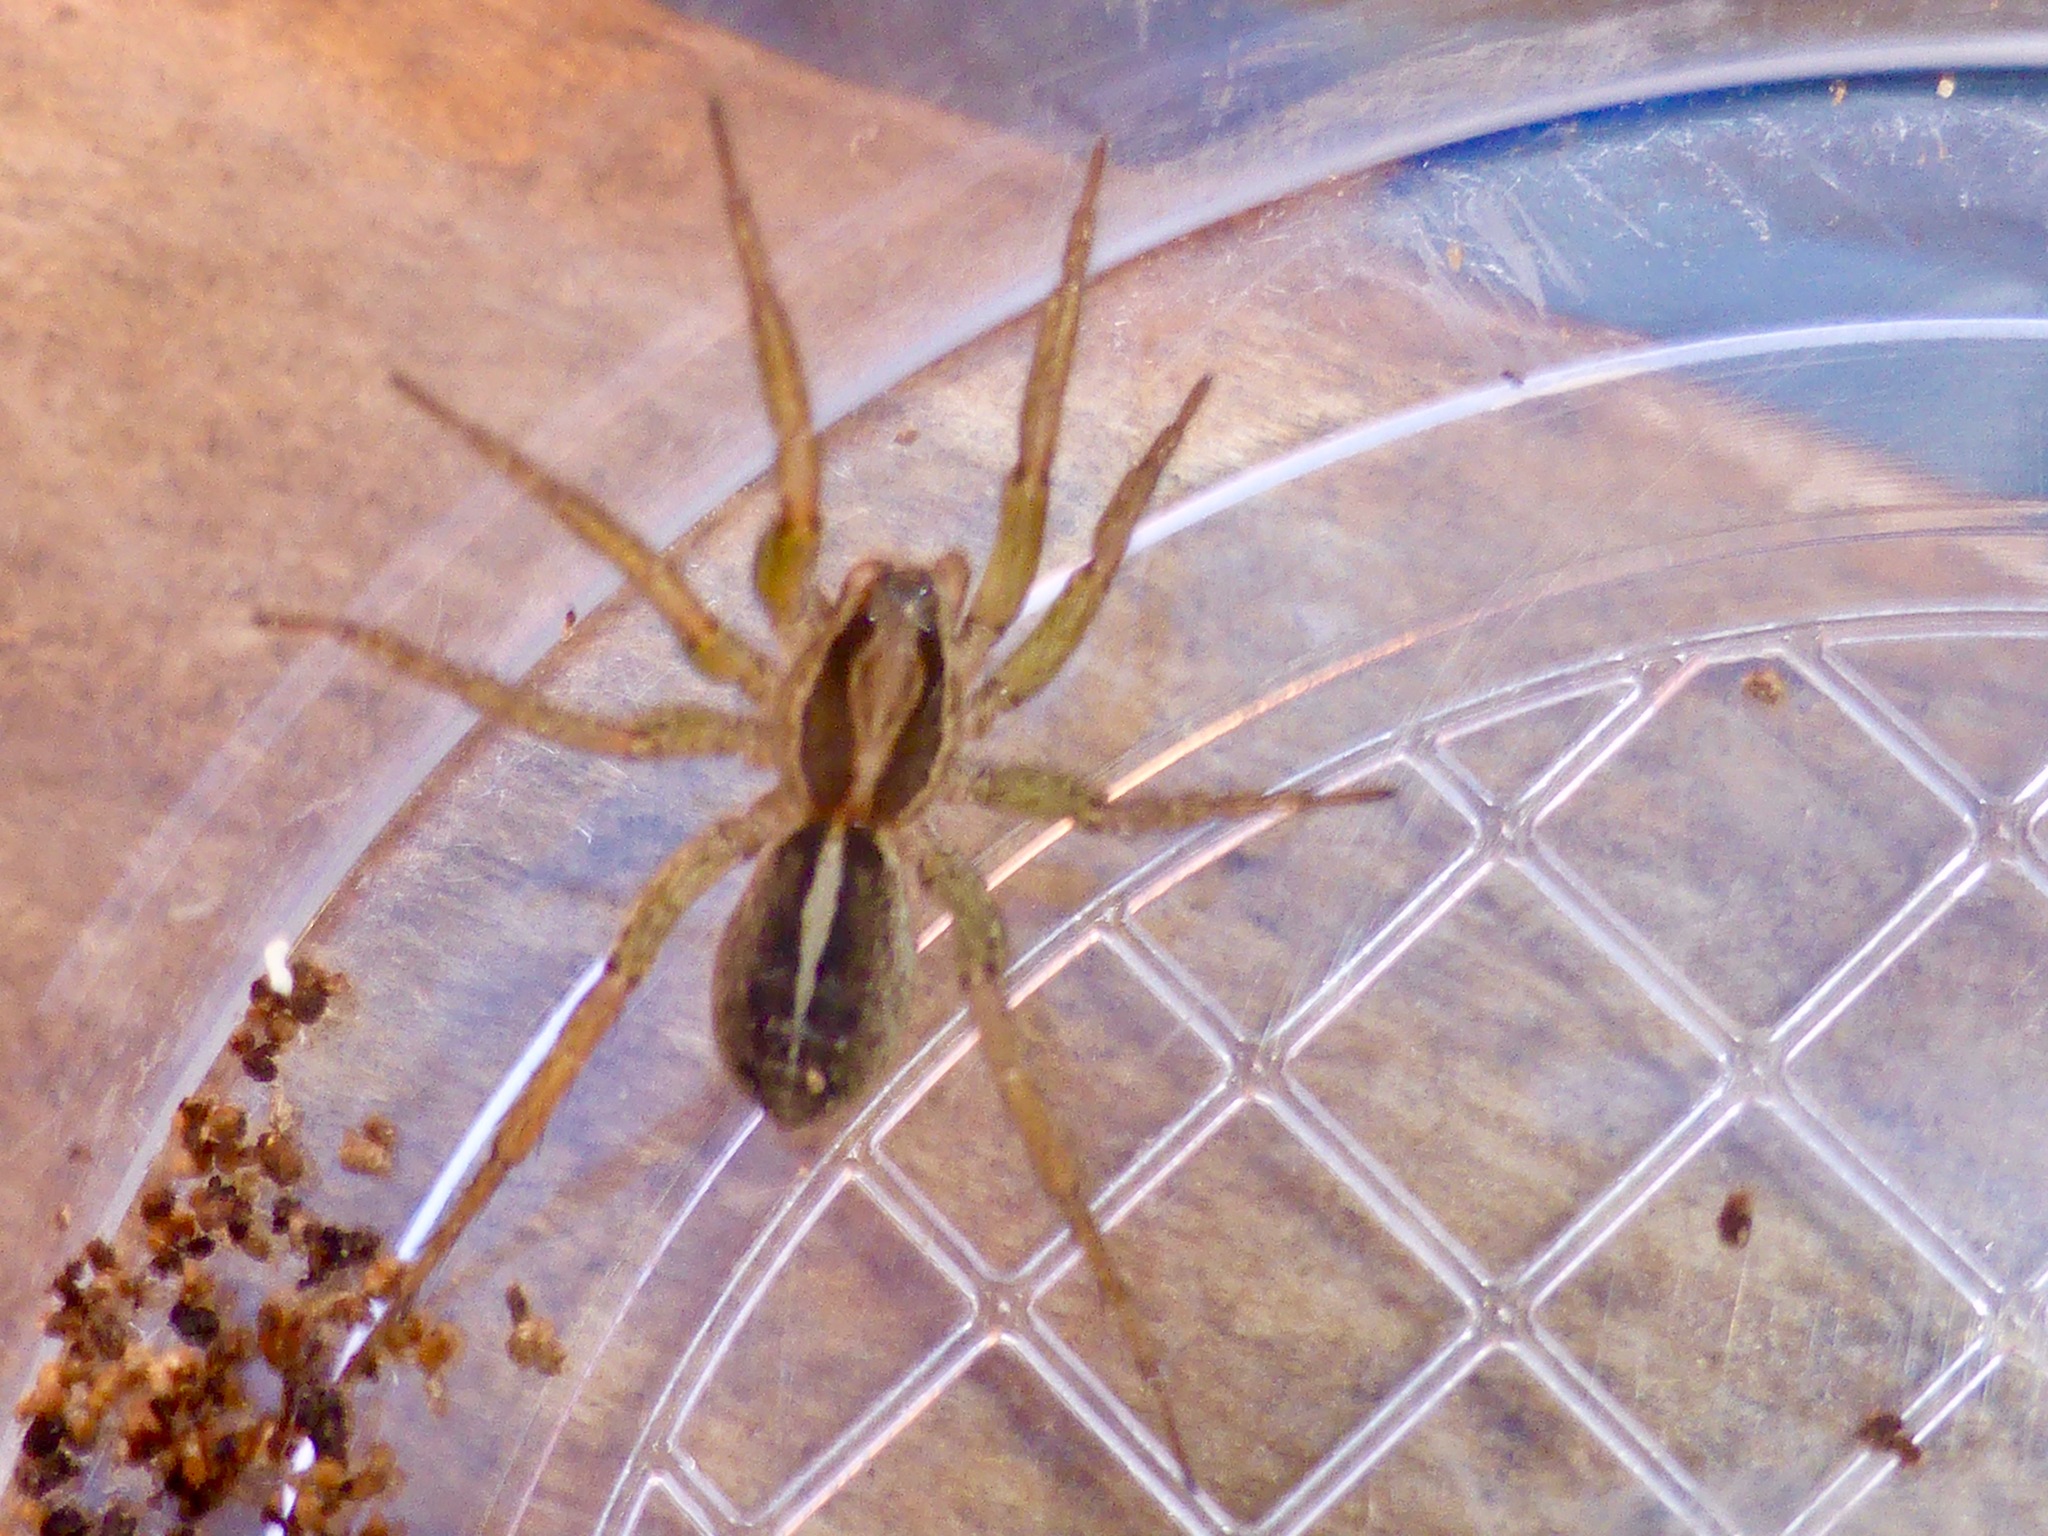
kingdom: Animalia
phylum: Arthropoda
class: Arachnida
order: Araneae
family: Lycosidae
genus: Anoteropsis
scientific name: Anoteropsis hilaris
